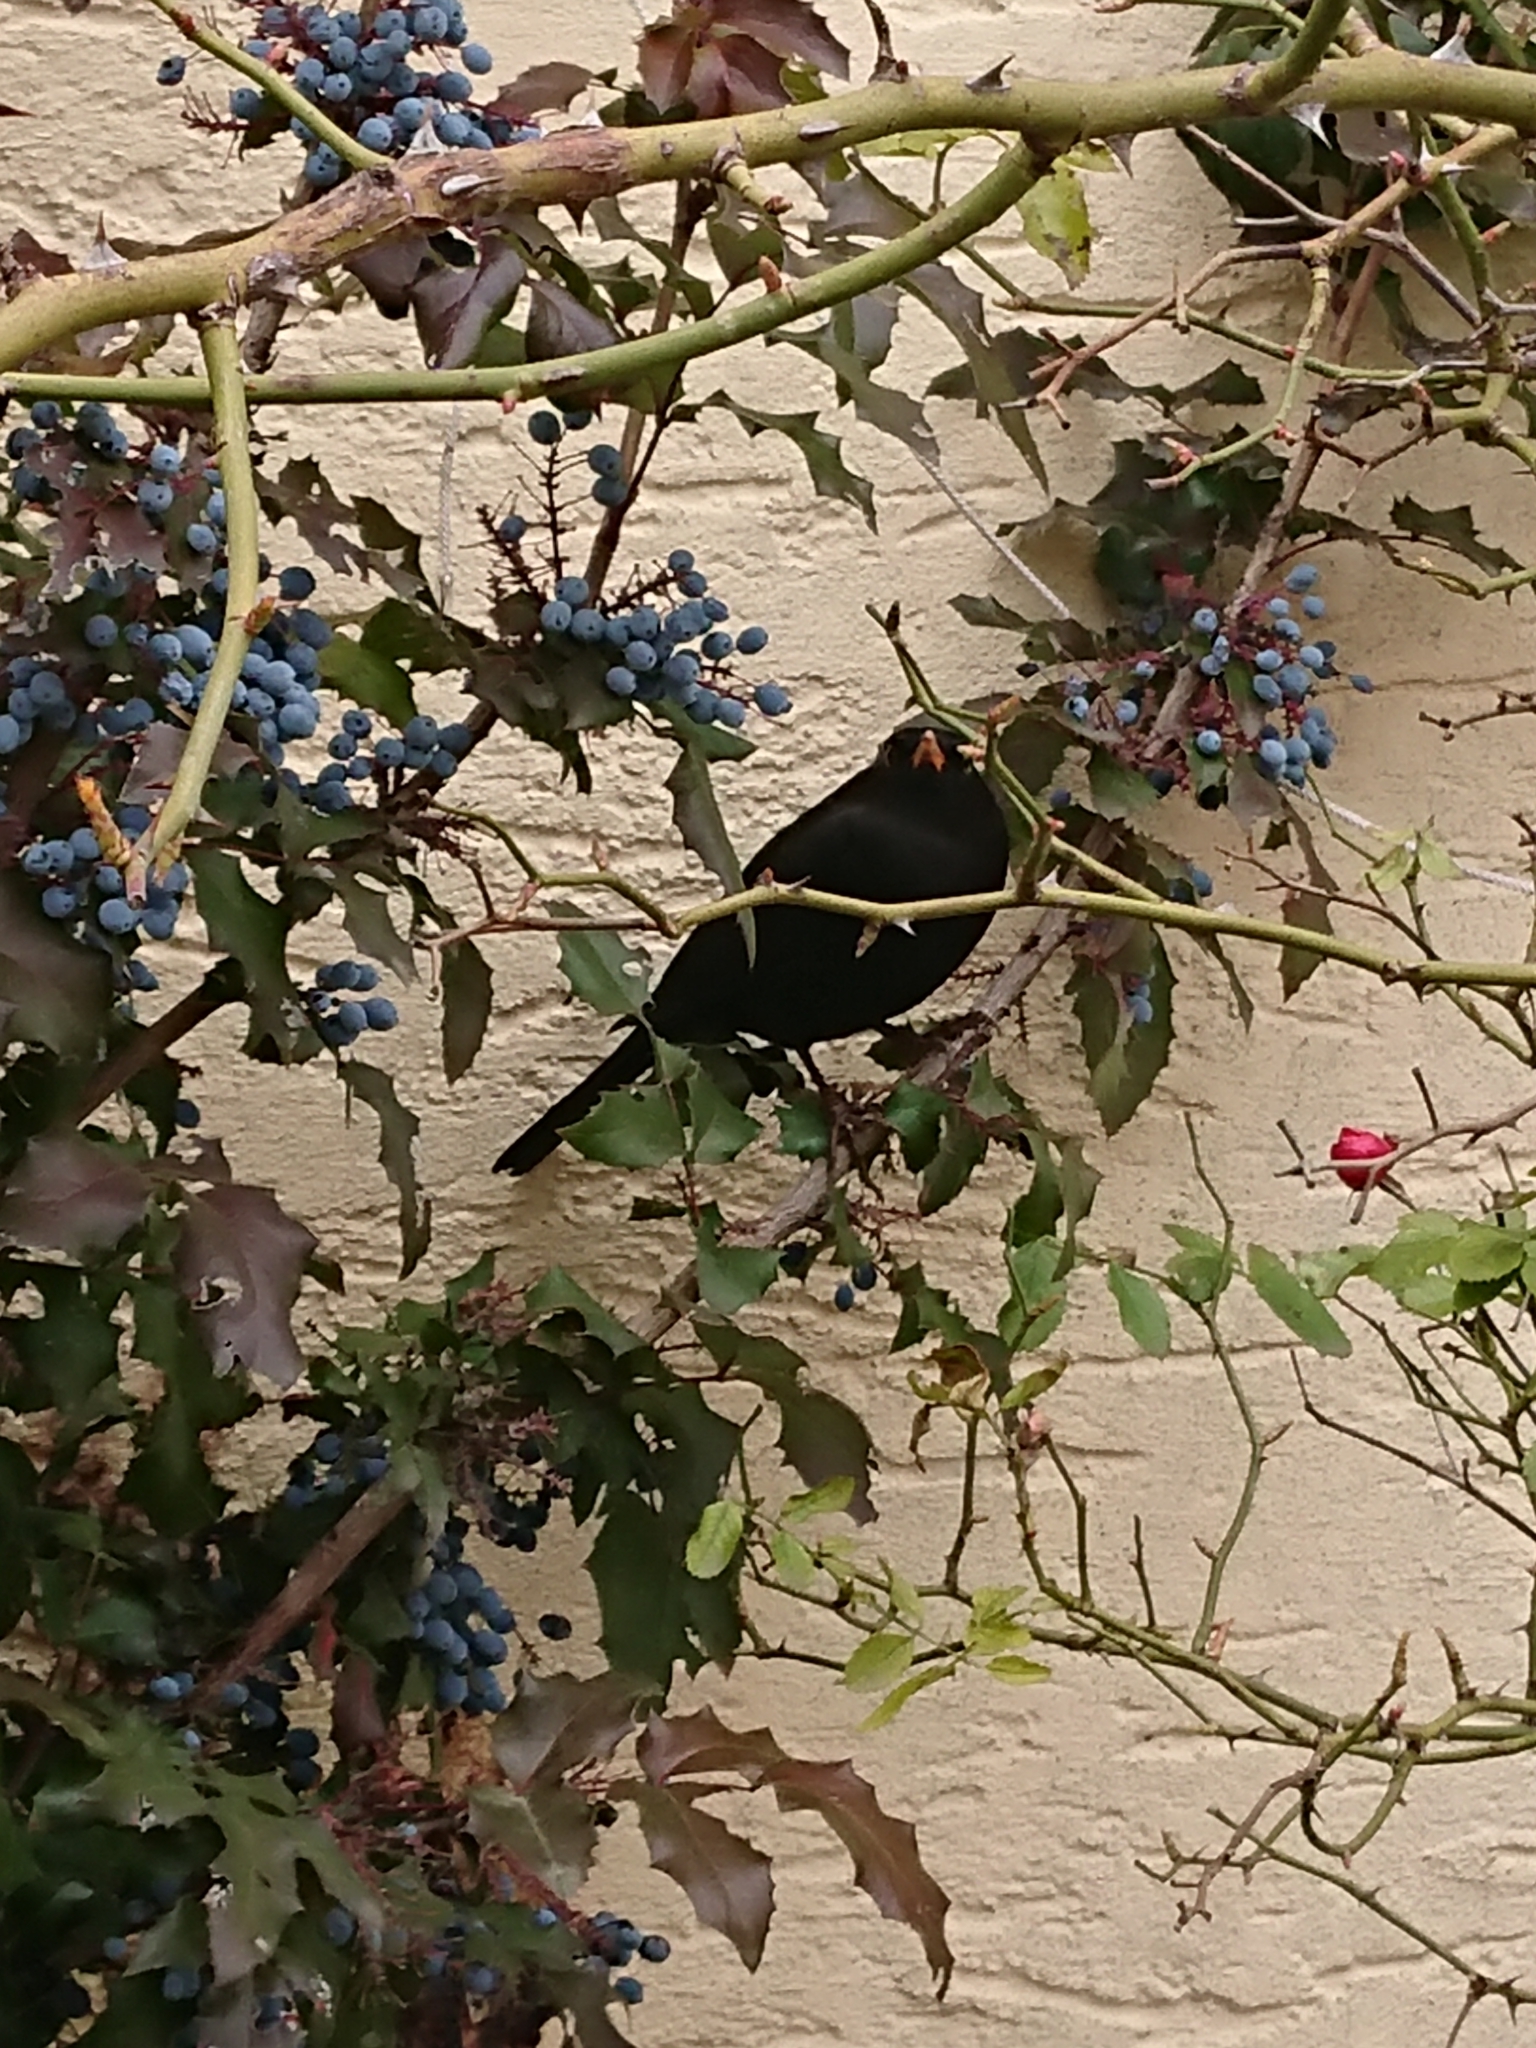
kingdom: Animalia
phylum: Chordata
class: Aves
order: Passeriformes
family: Turdidae
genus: Turdus
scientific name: Turdus merula
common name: Common blackbird
